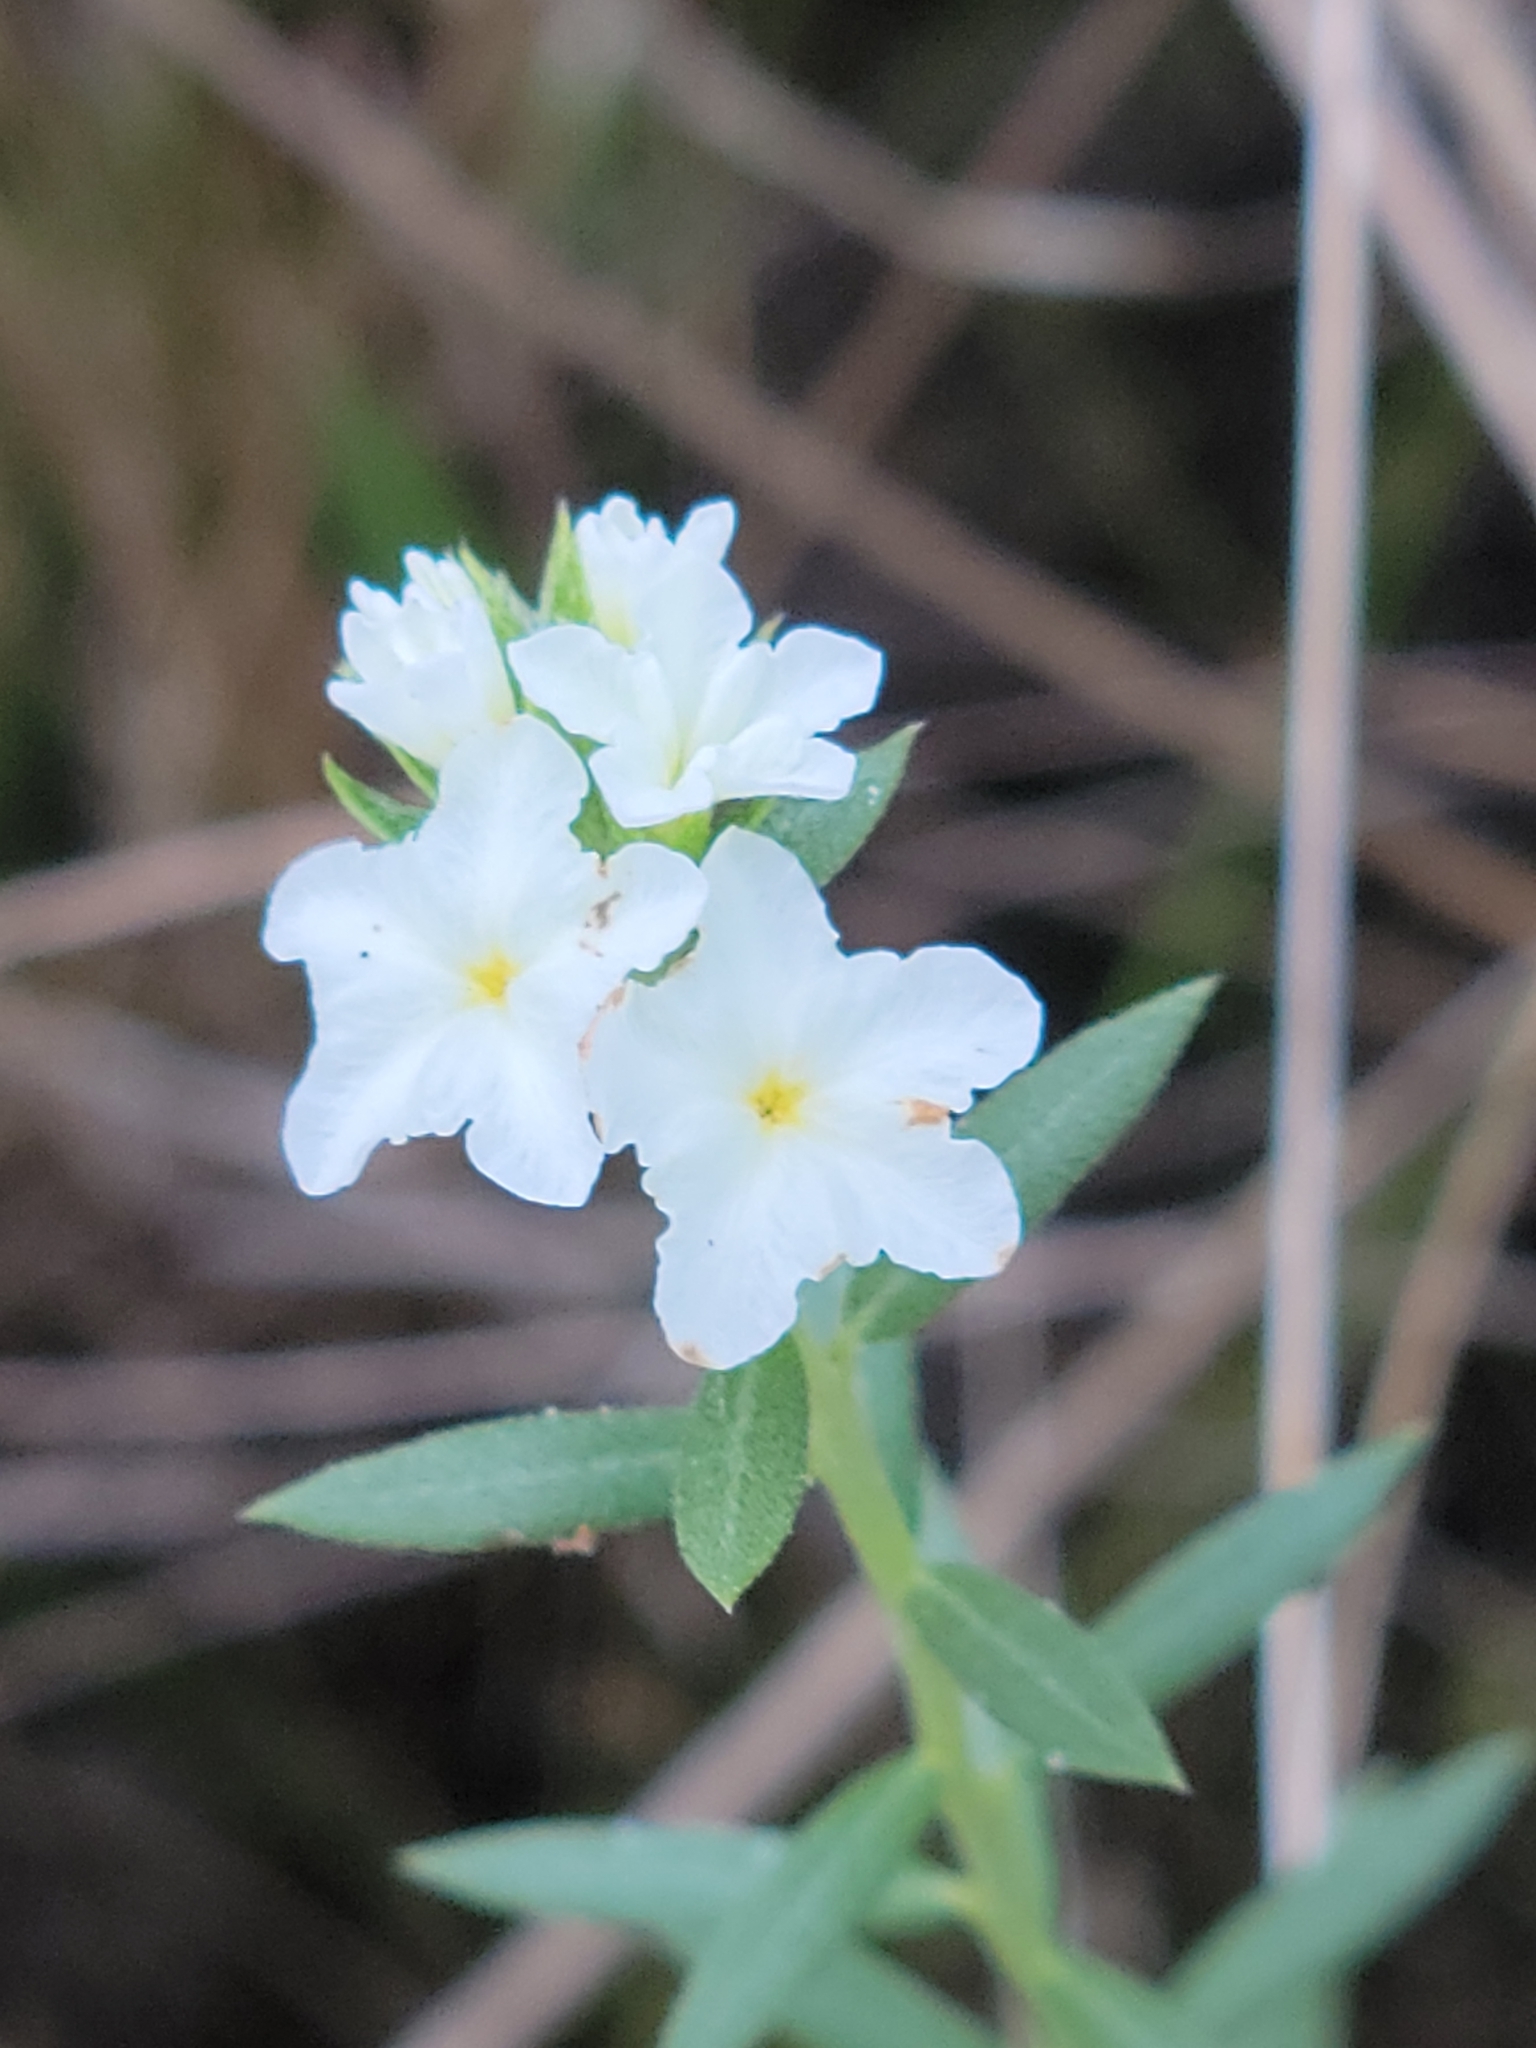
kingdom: Plantae
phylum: Tracheophyta
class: Magnoliopsida
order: Boraginales
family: Heliotropiaceae
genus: Euploca
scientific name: Euploca polyphylla
